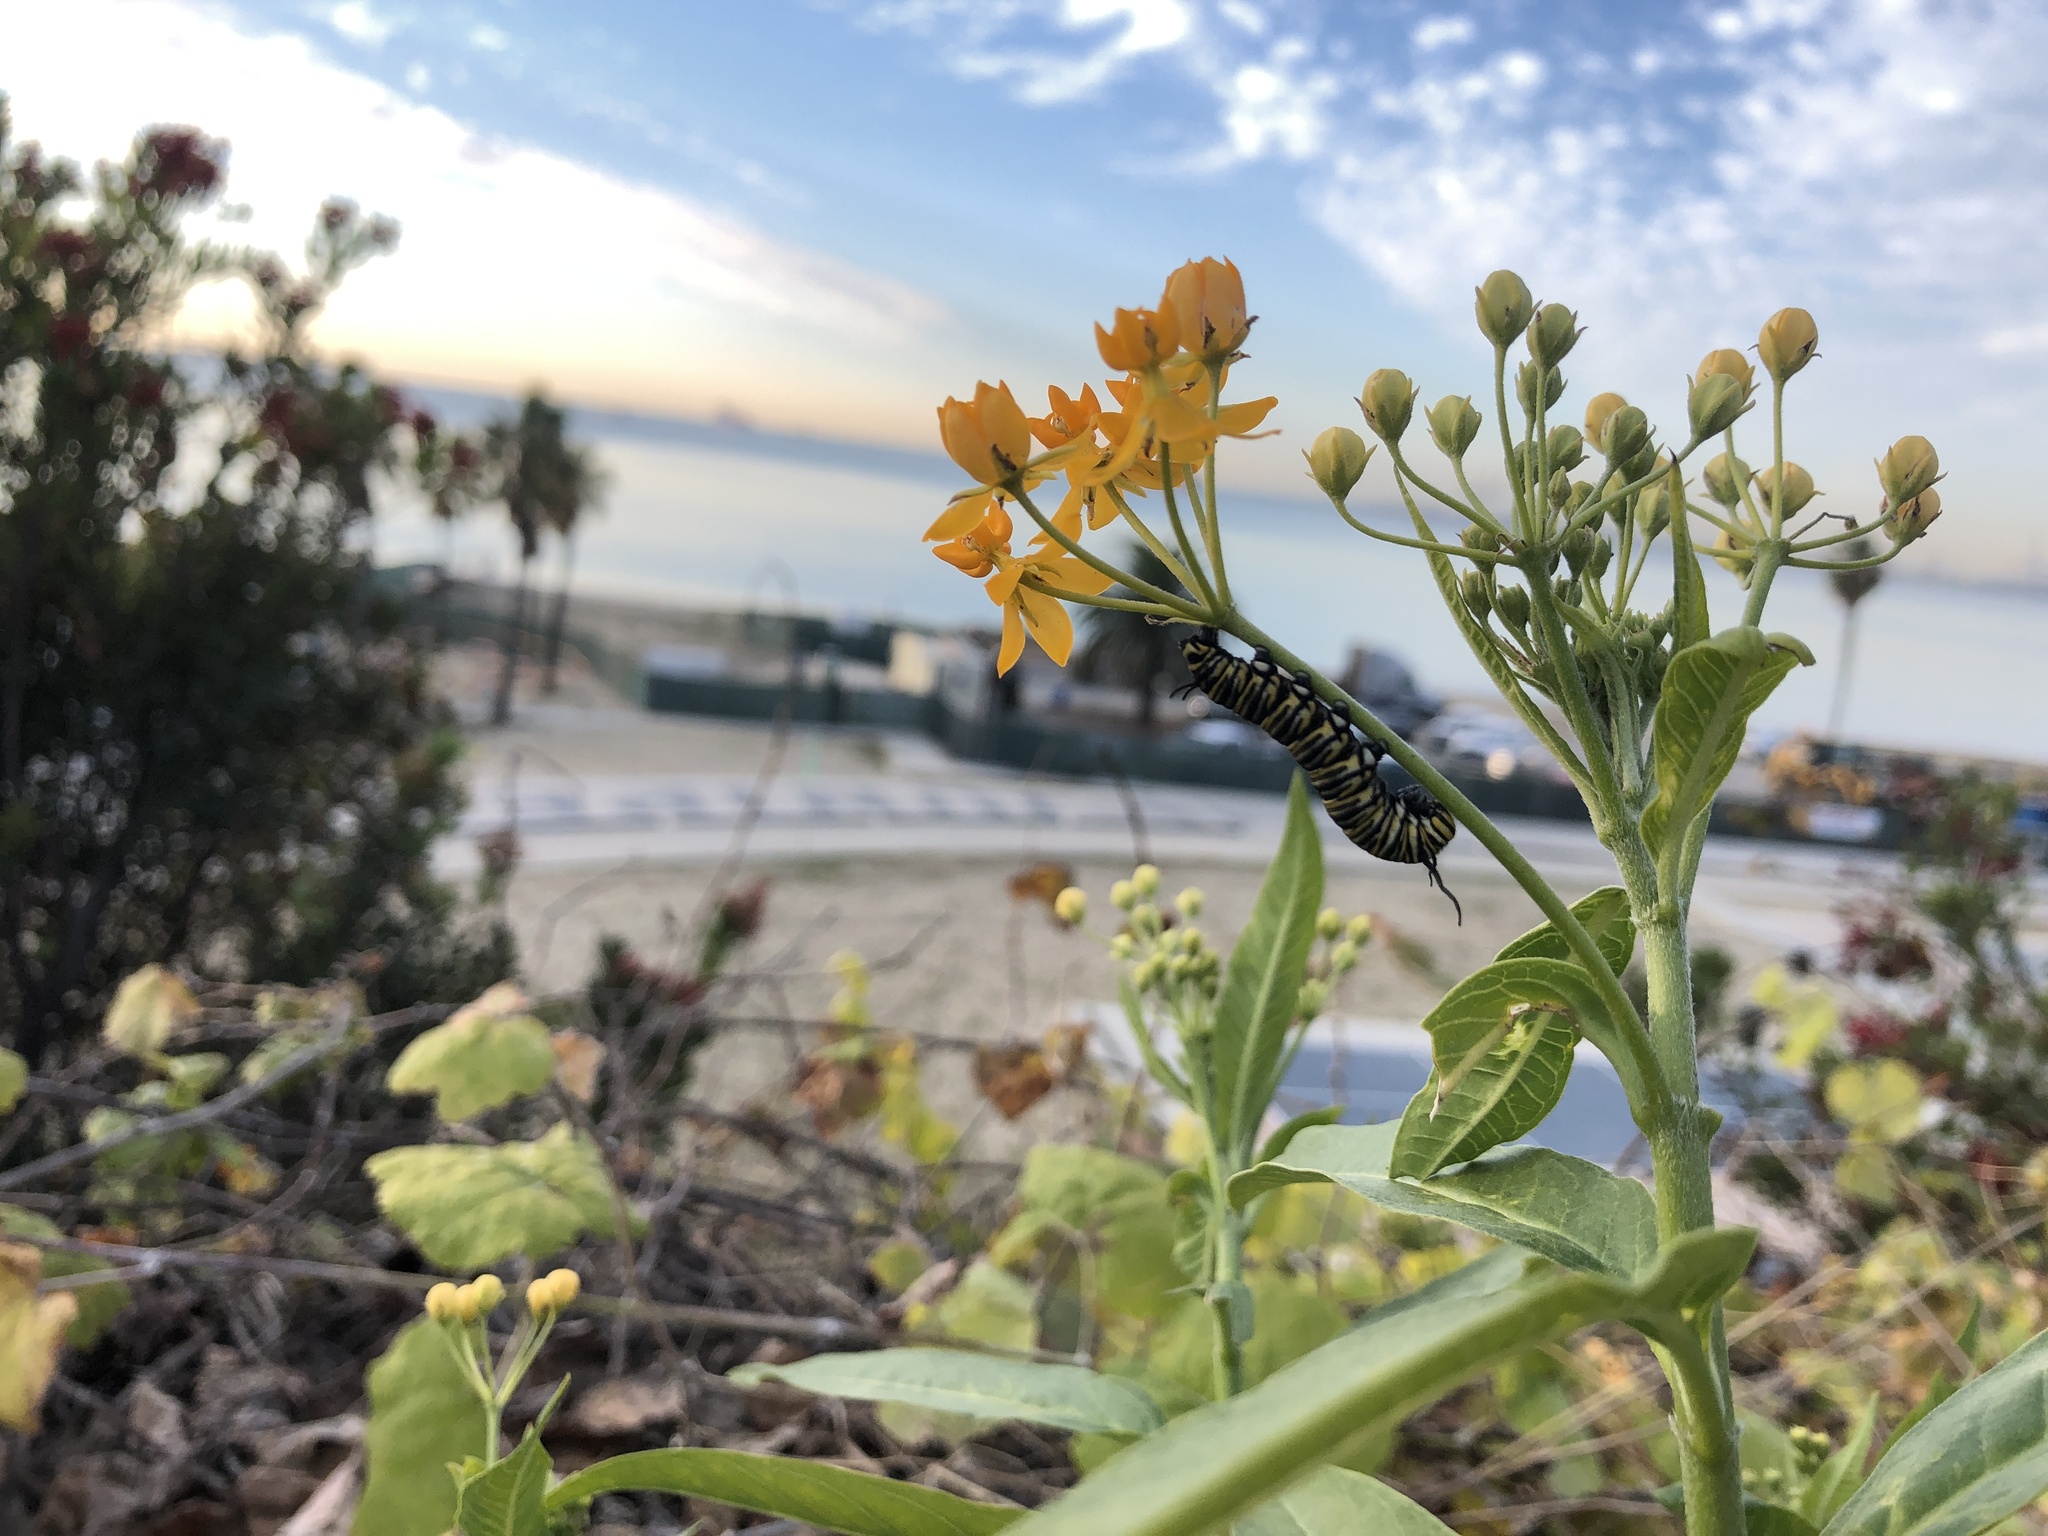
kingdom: Animalia
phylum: Arthropoda
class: Insecta
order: Lepidoptera
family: Nymphalidae
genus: Danaus
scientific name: Danaus plexippus
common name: Monarch
